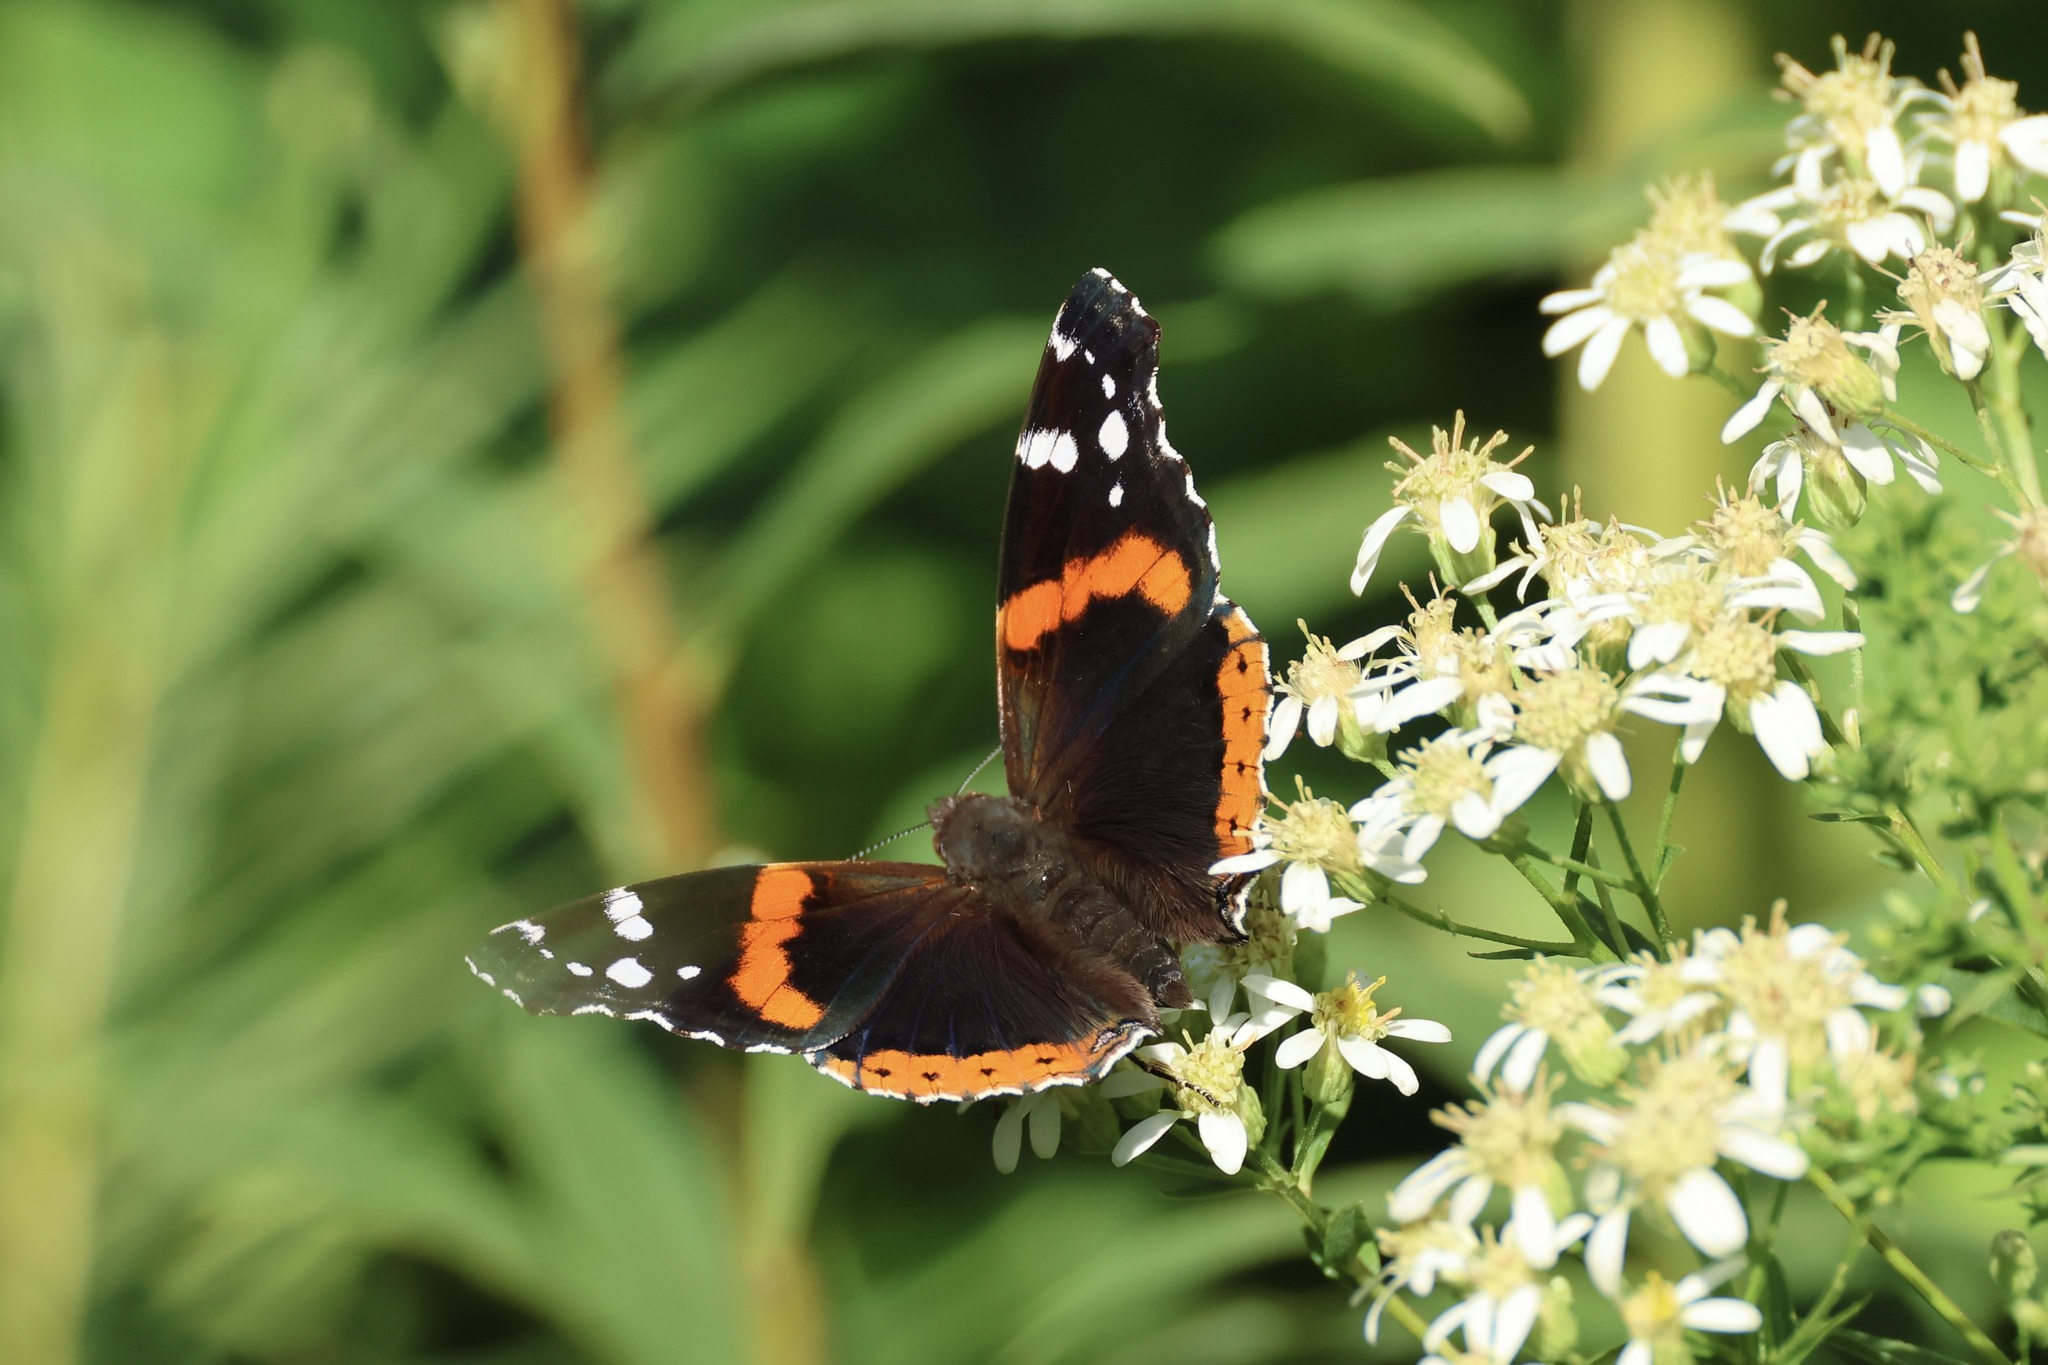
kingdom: Animalia
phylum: Arthropoda
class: Insecta
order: Lepidoptera
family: Nymphalidae
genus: Vanessa
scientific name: Vanessa atalanta
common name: Red admiral
